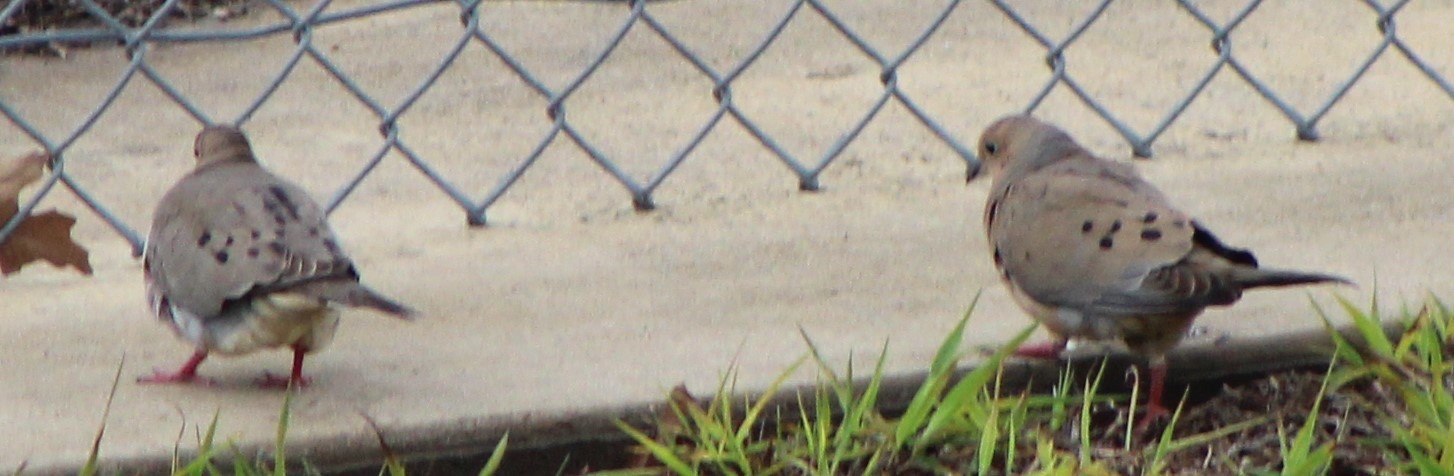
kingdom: Animalia
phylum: Chordata
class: Aves
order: Columbiformes
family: Columbidae
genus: Zenaida
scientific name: Zenaida macroura
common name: Mourning dove
